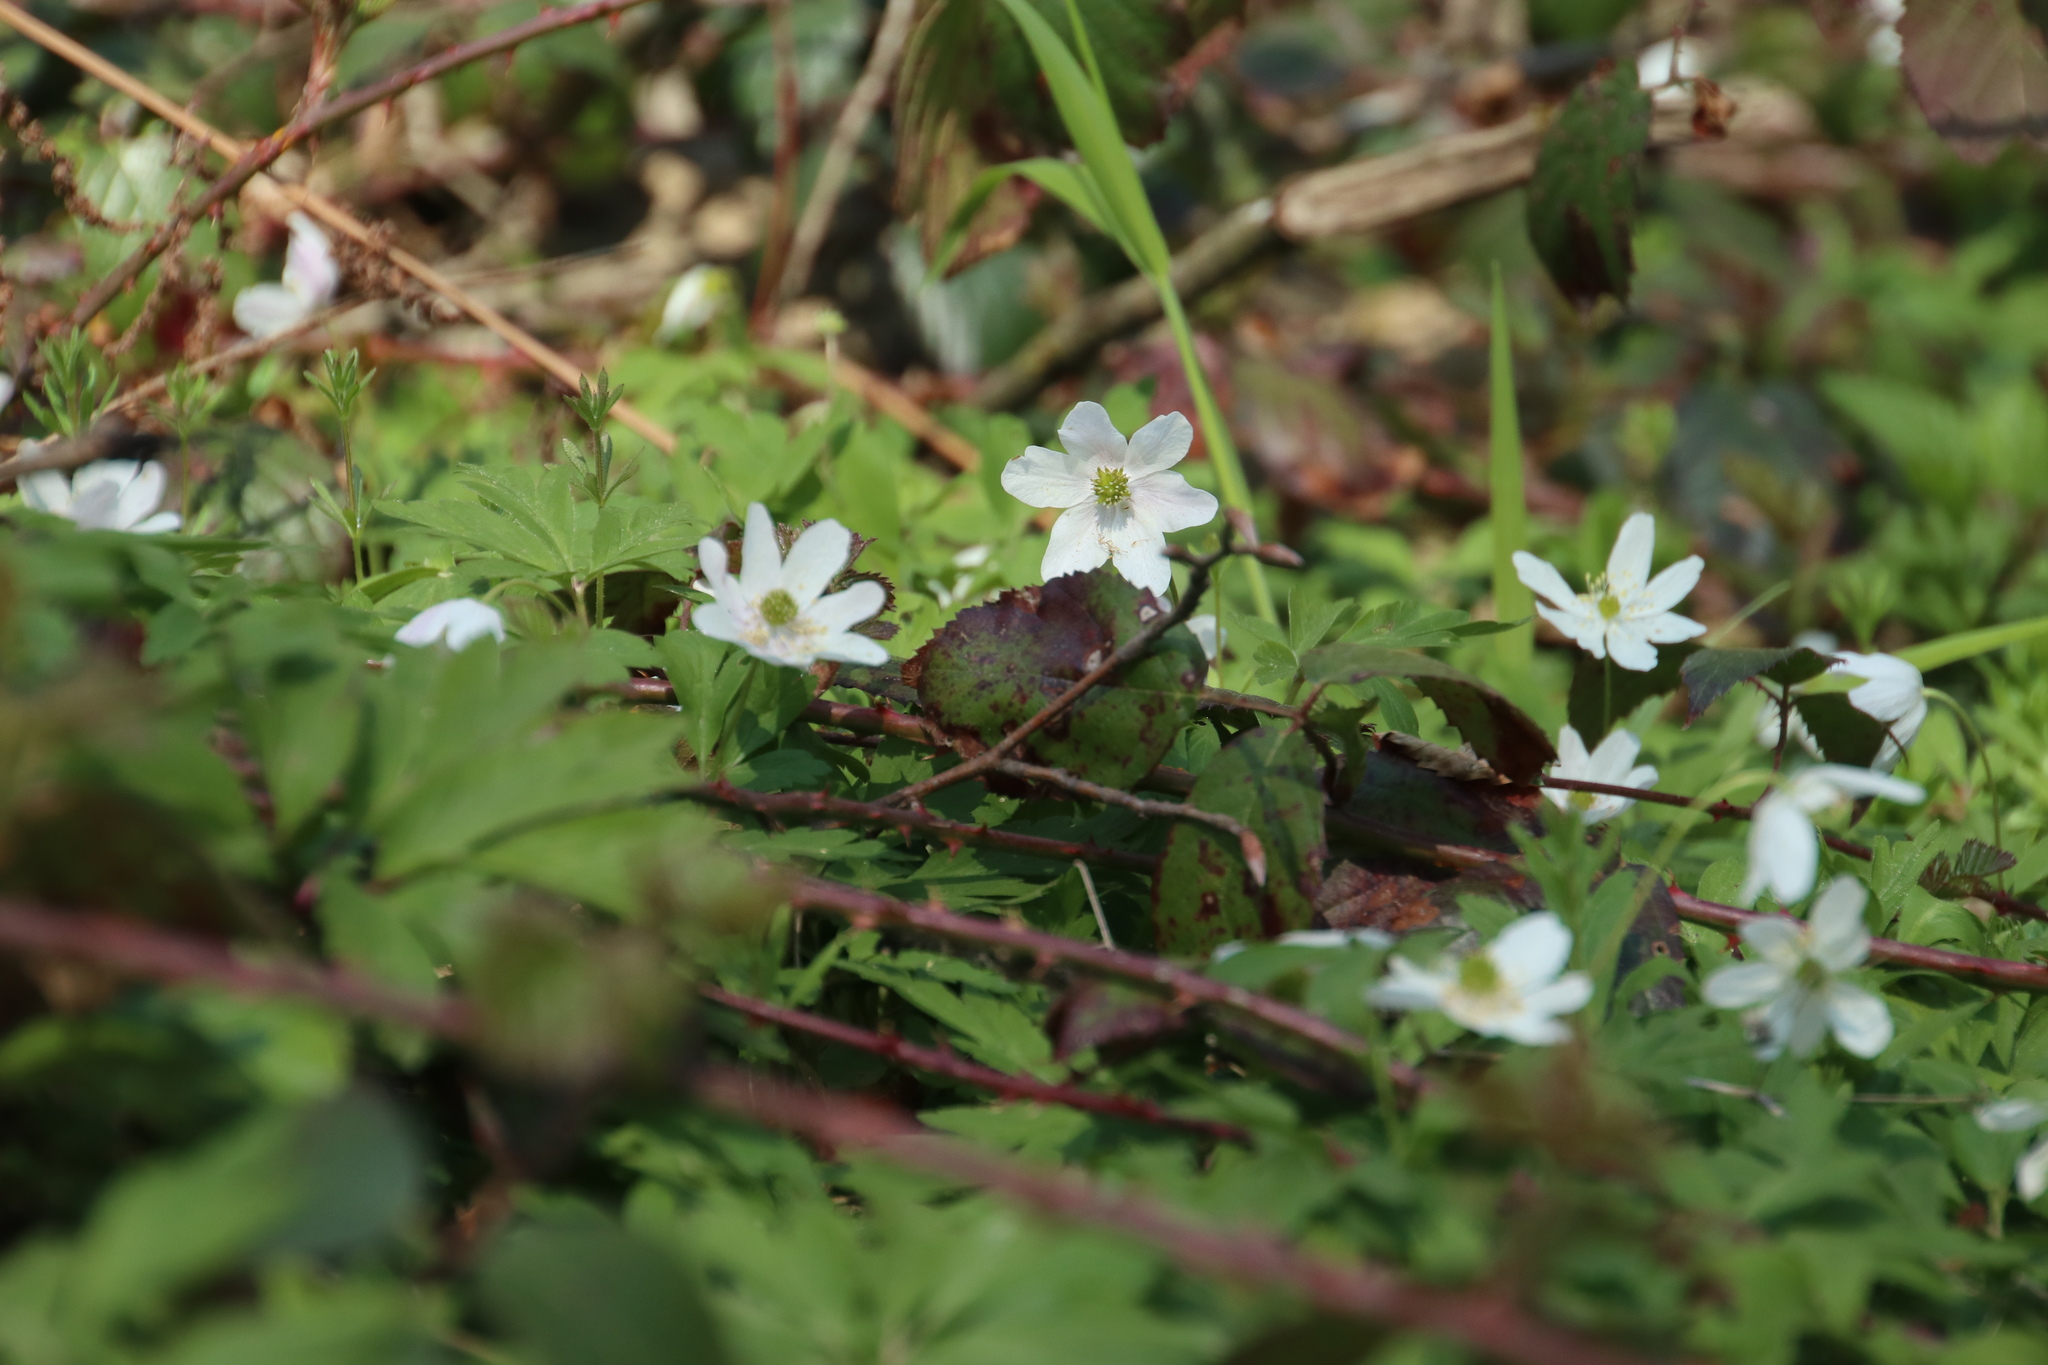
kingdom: Plantae
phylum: Tracheophyta
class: Magnoliopsida
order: Ranunculales
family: Ranunculaceae
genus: Anemone
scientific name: Anemone nemorosa
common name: Wood anemone
